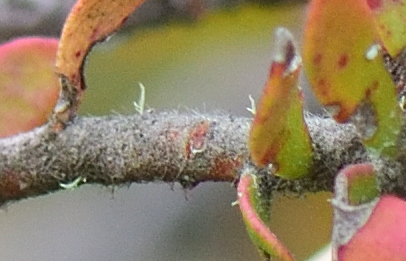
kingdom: Plantae
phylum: Tracheophyta
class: Magnoliopsida
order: Proteales
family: Proteaceae
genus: Leucospermum
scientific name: Leucospermum royenifolium
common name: Eastern pincushion
